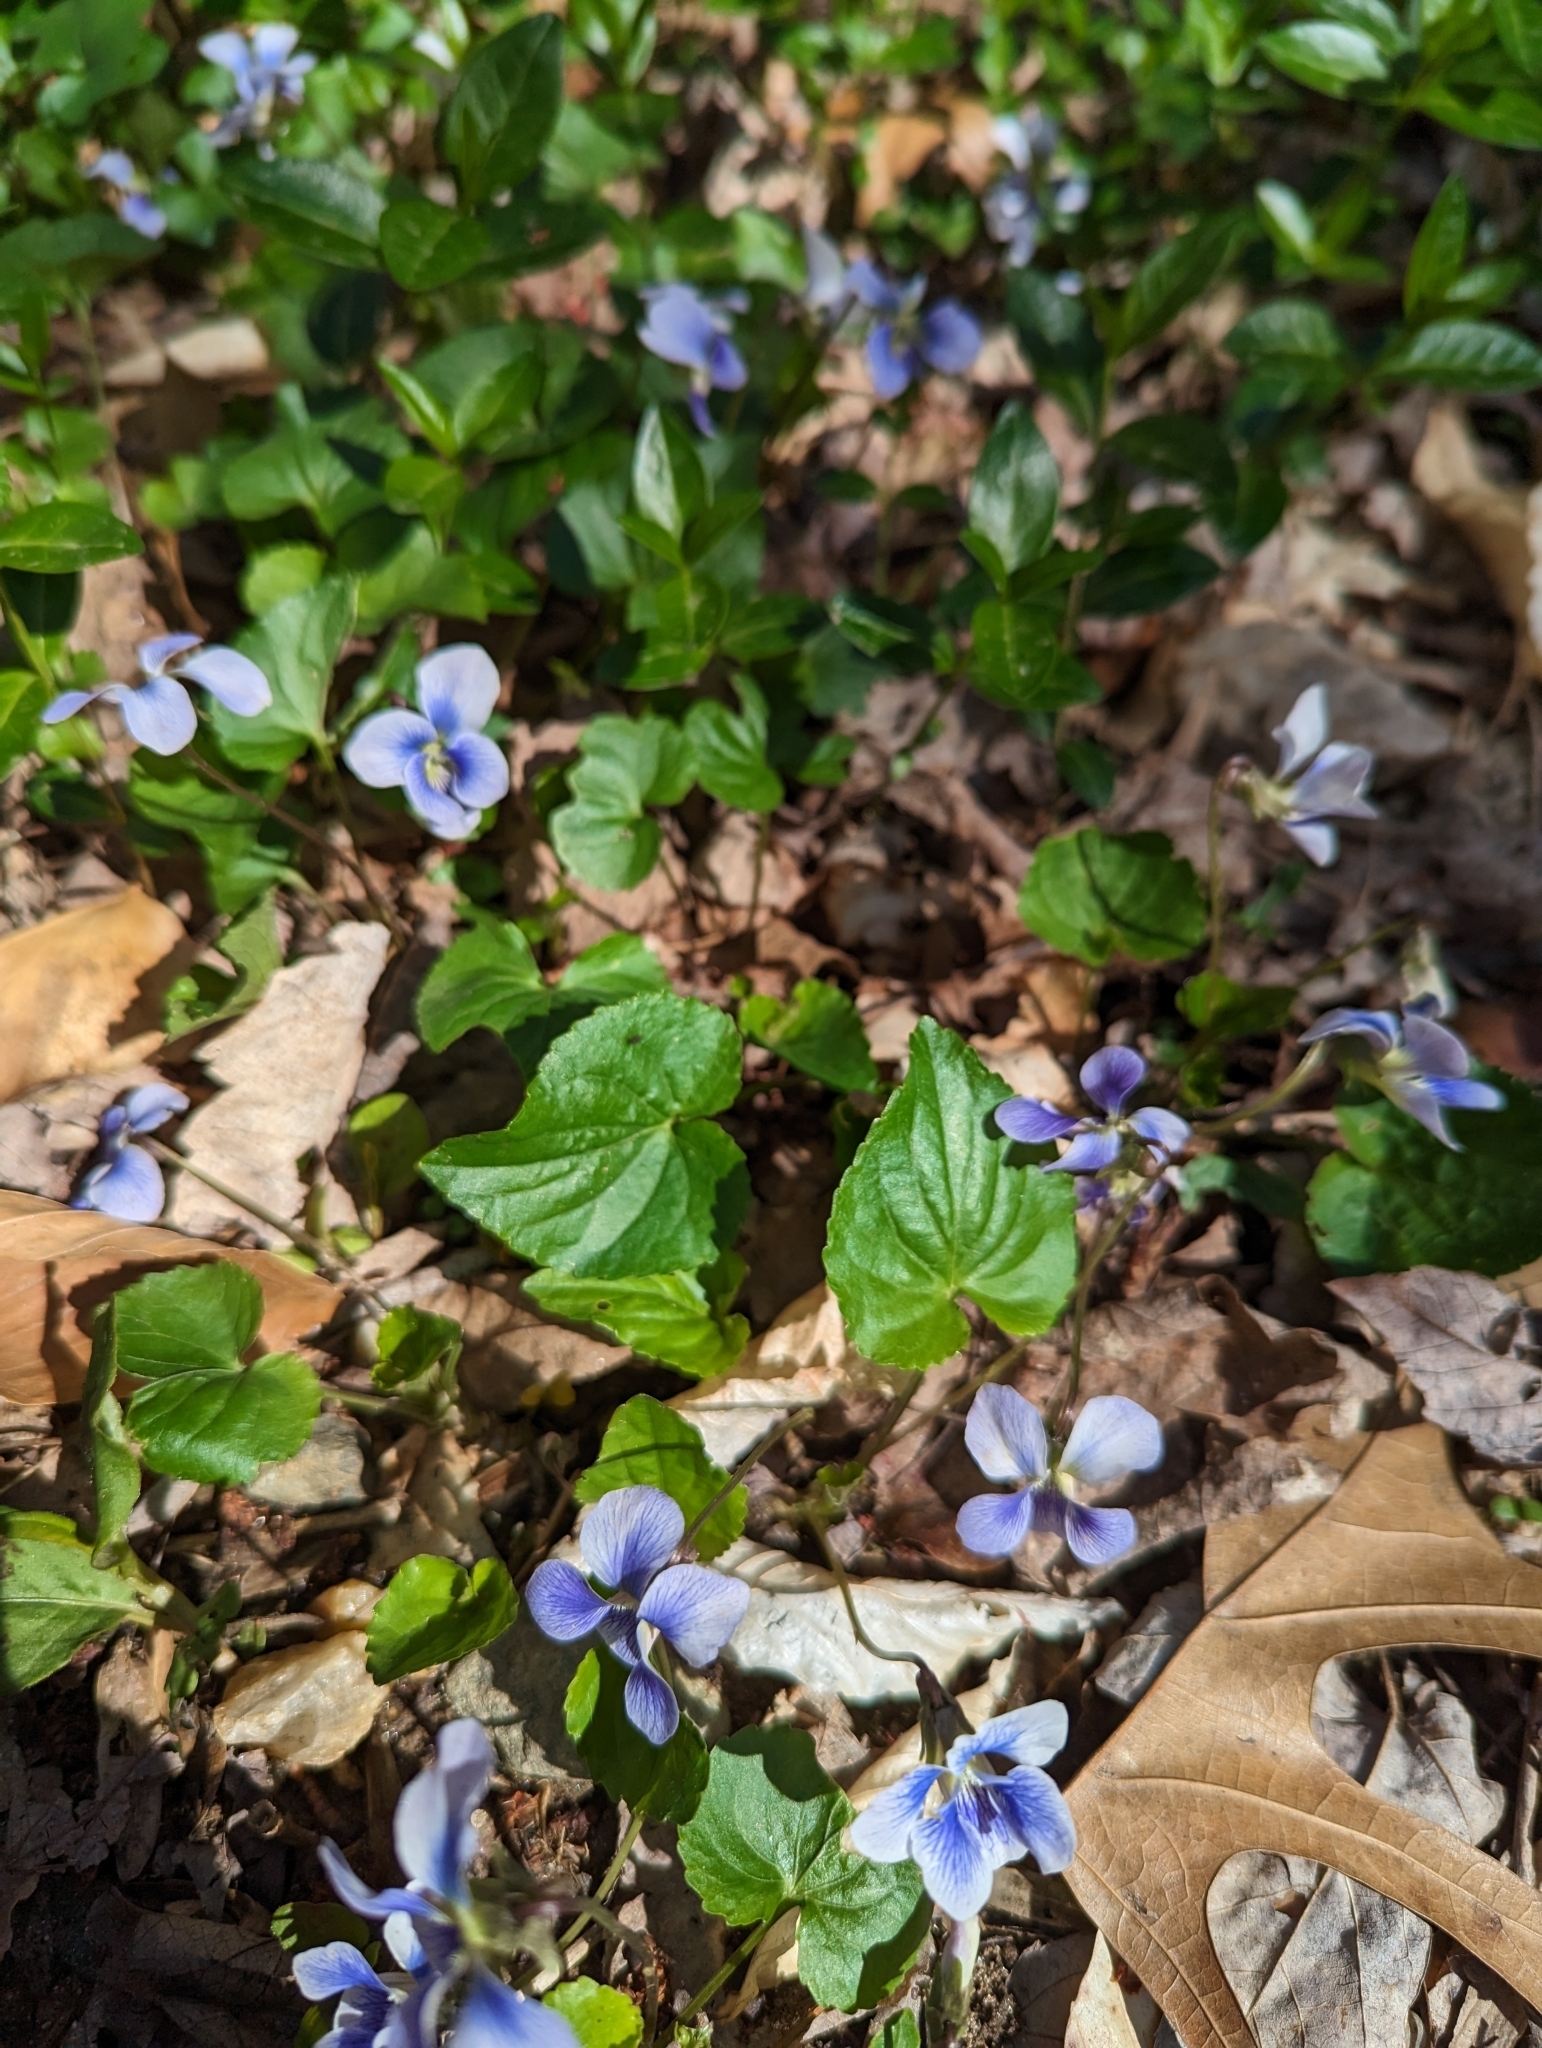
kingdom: Plantae
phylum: Tracheophyta
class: Magnoliopsida
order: Malpighiales
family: Violaceae
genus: Viola
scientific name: Viola sororia
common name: Dooryard violet
